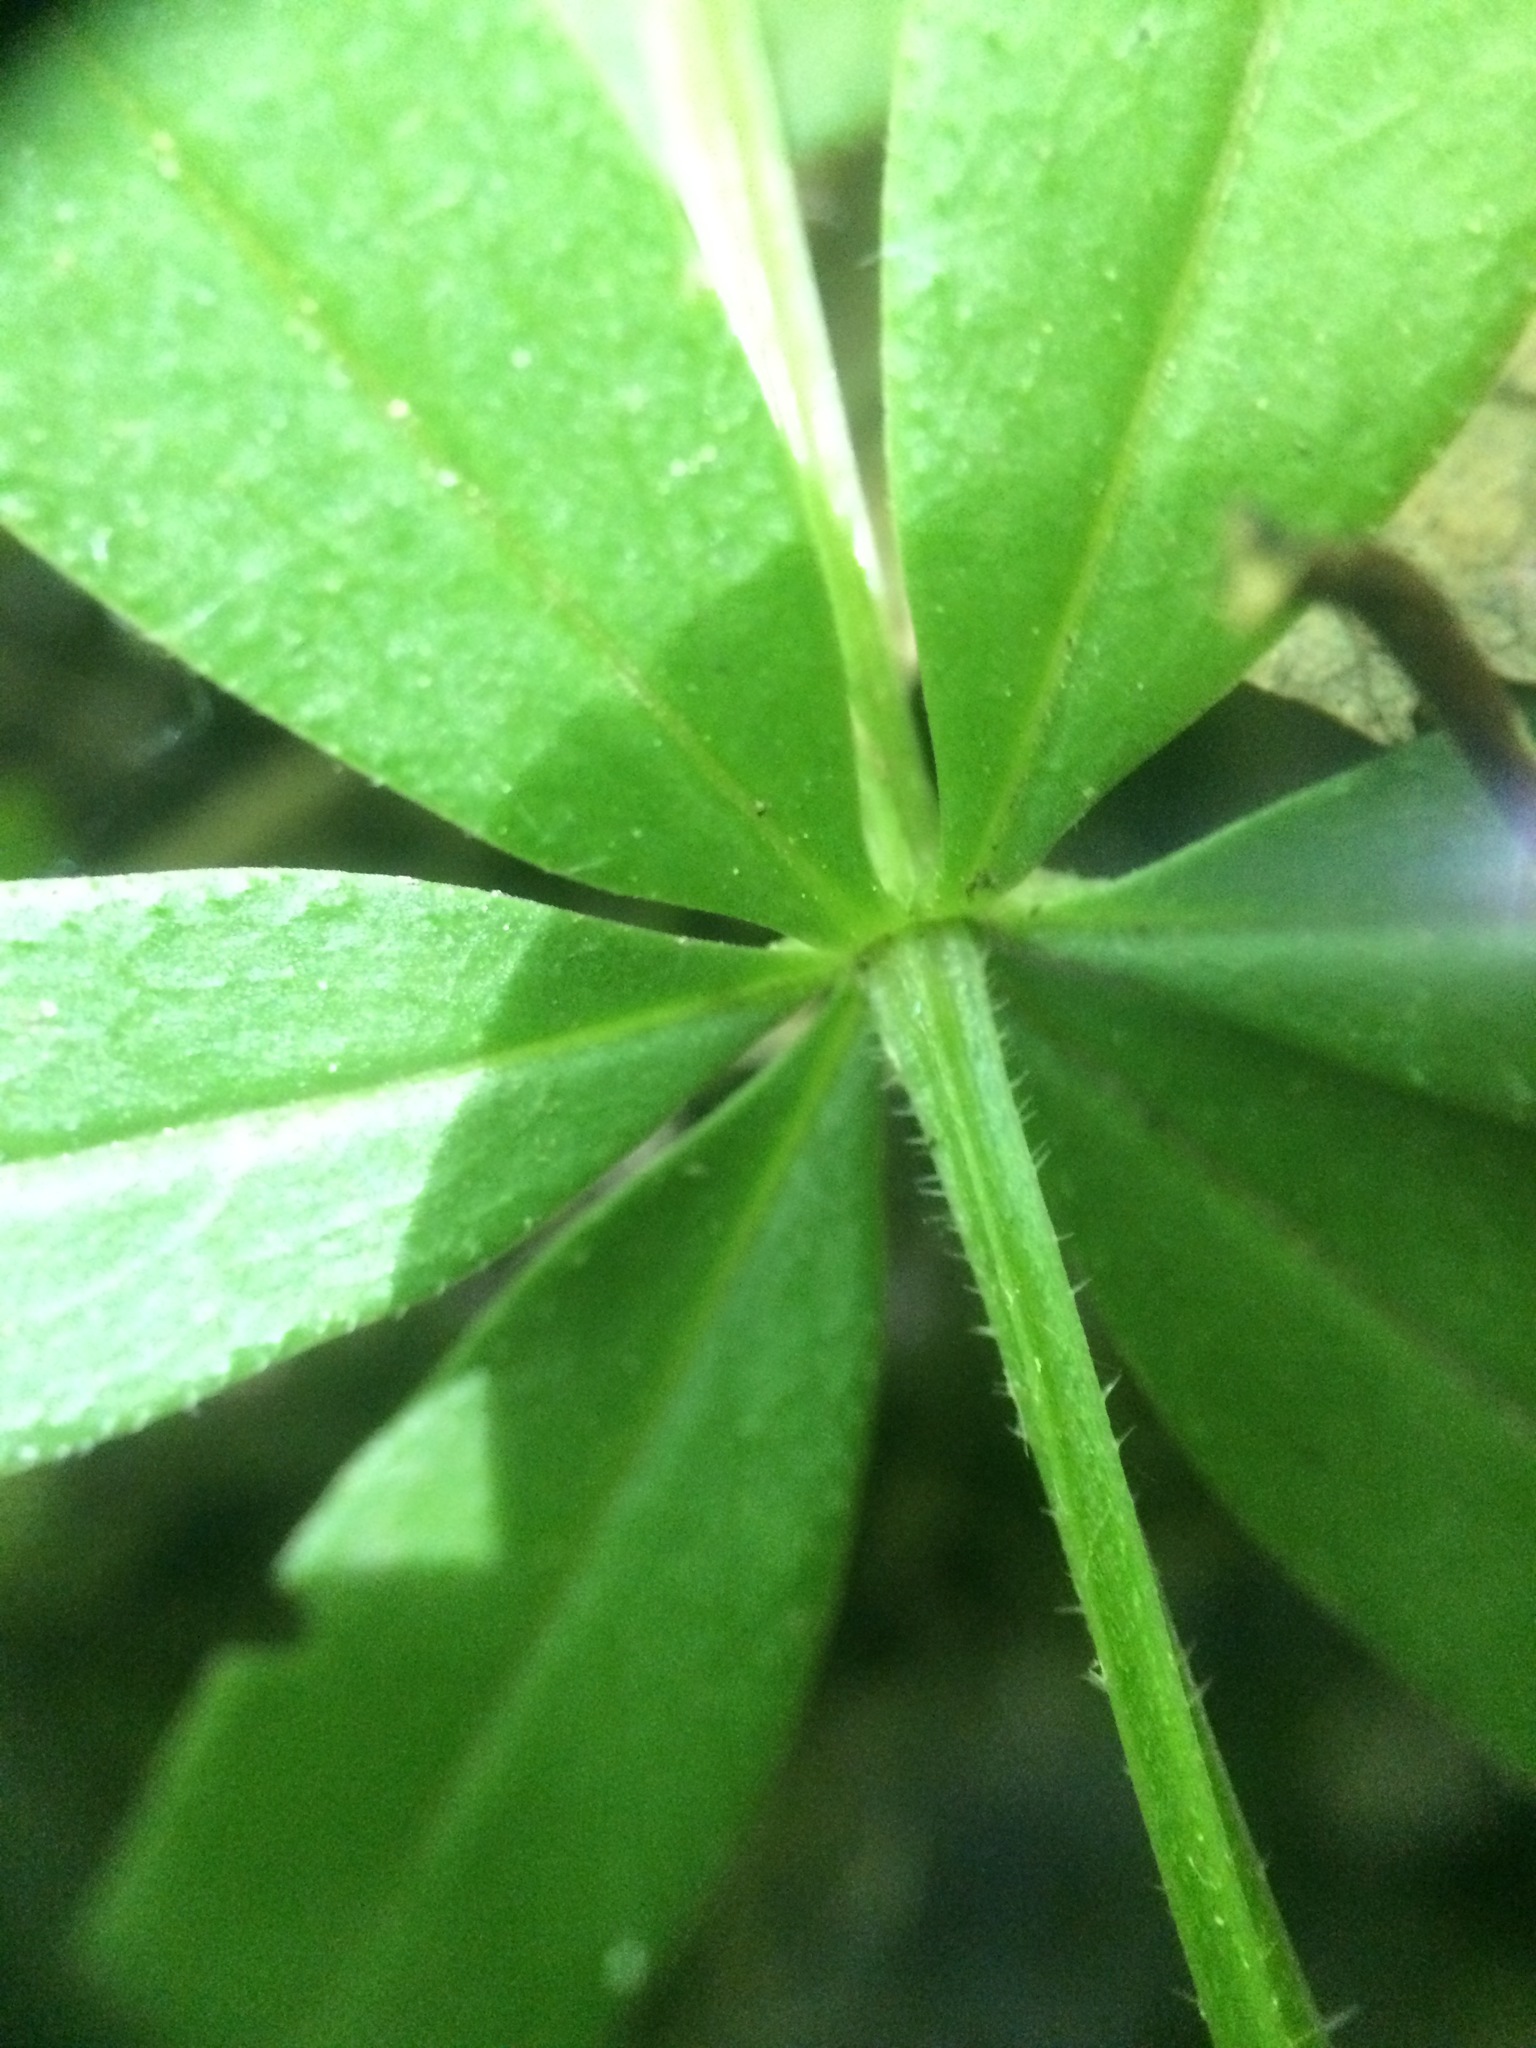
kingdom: Plantae
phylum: Tracheophyta
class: Magnoliopsida
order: Gentianales
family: Rubiaceae
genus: Galium
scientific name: Galium triflorum
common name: Fragrant bedstraw
